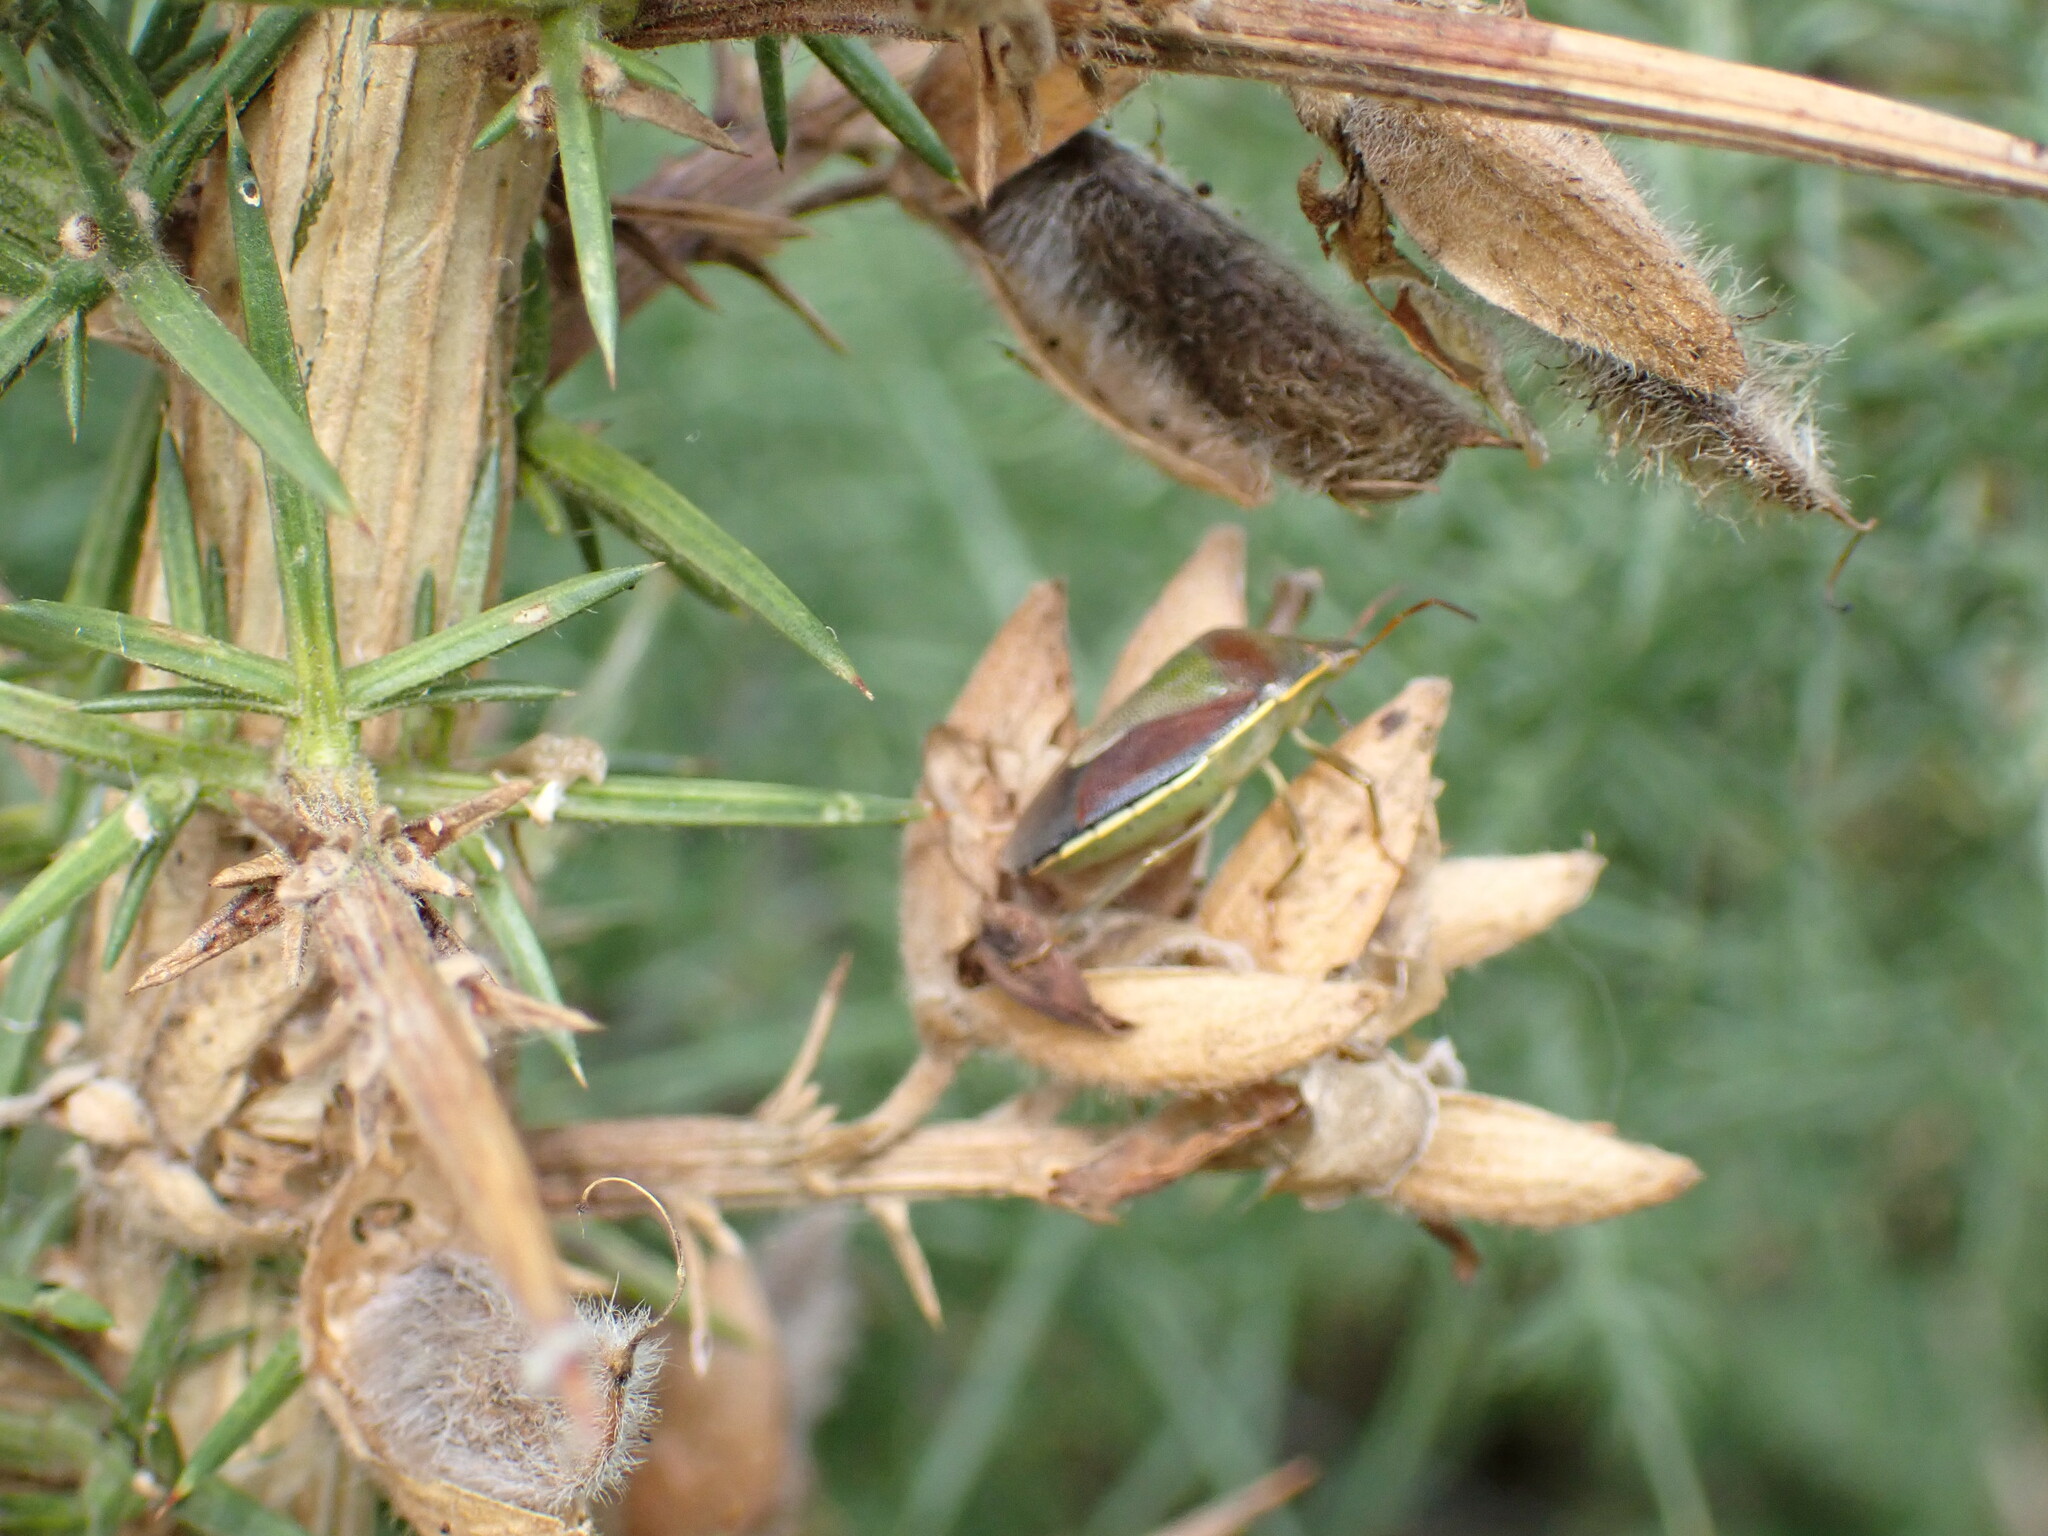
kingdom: Animalia
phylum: Arthropoda
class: Insecta
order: Hemiptera
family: Pentatomidae
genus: Piezodorus
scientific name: Piezodorus lituratus
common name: Stink bug
